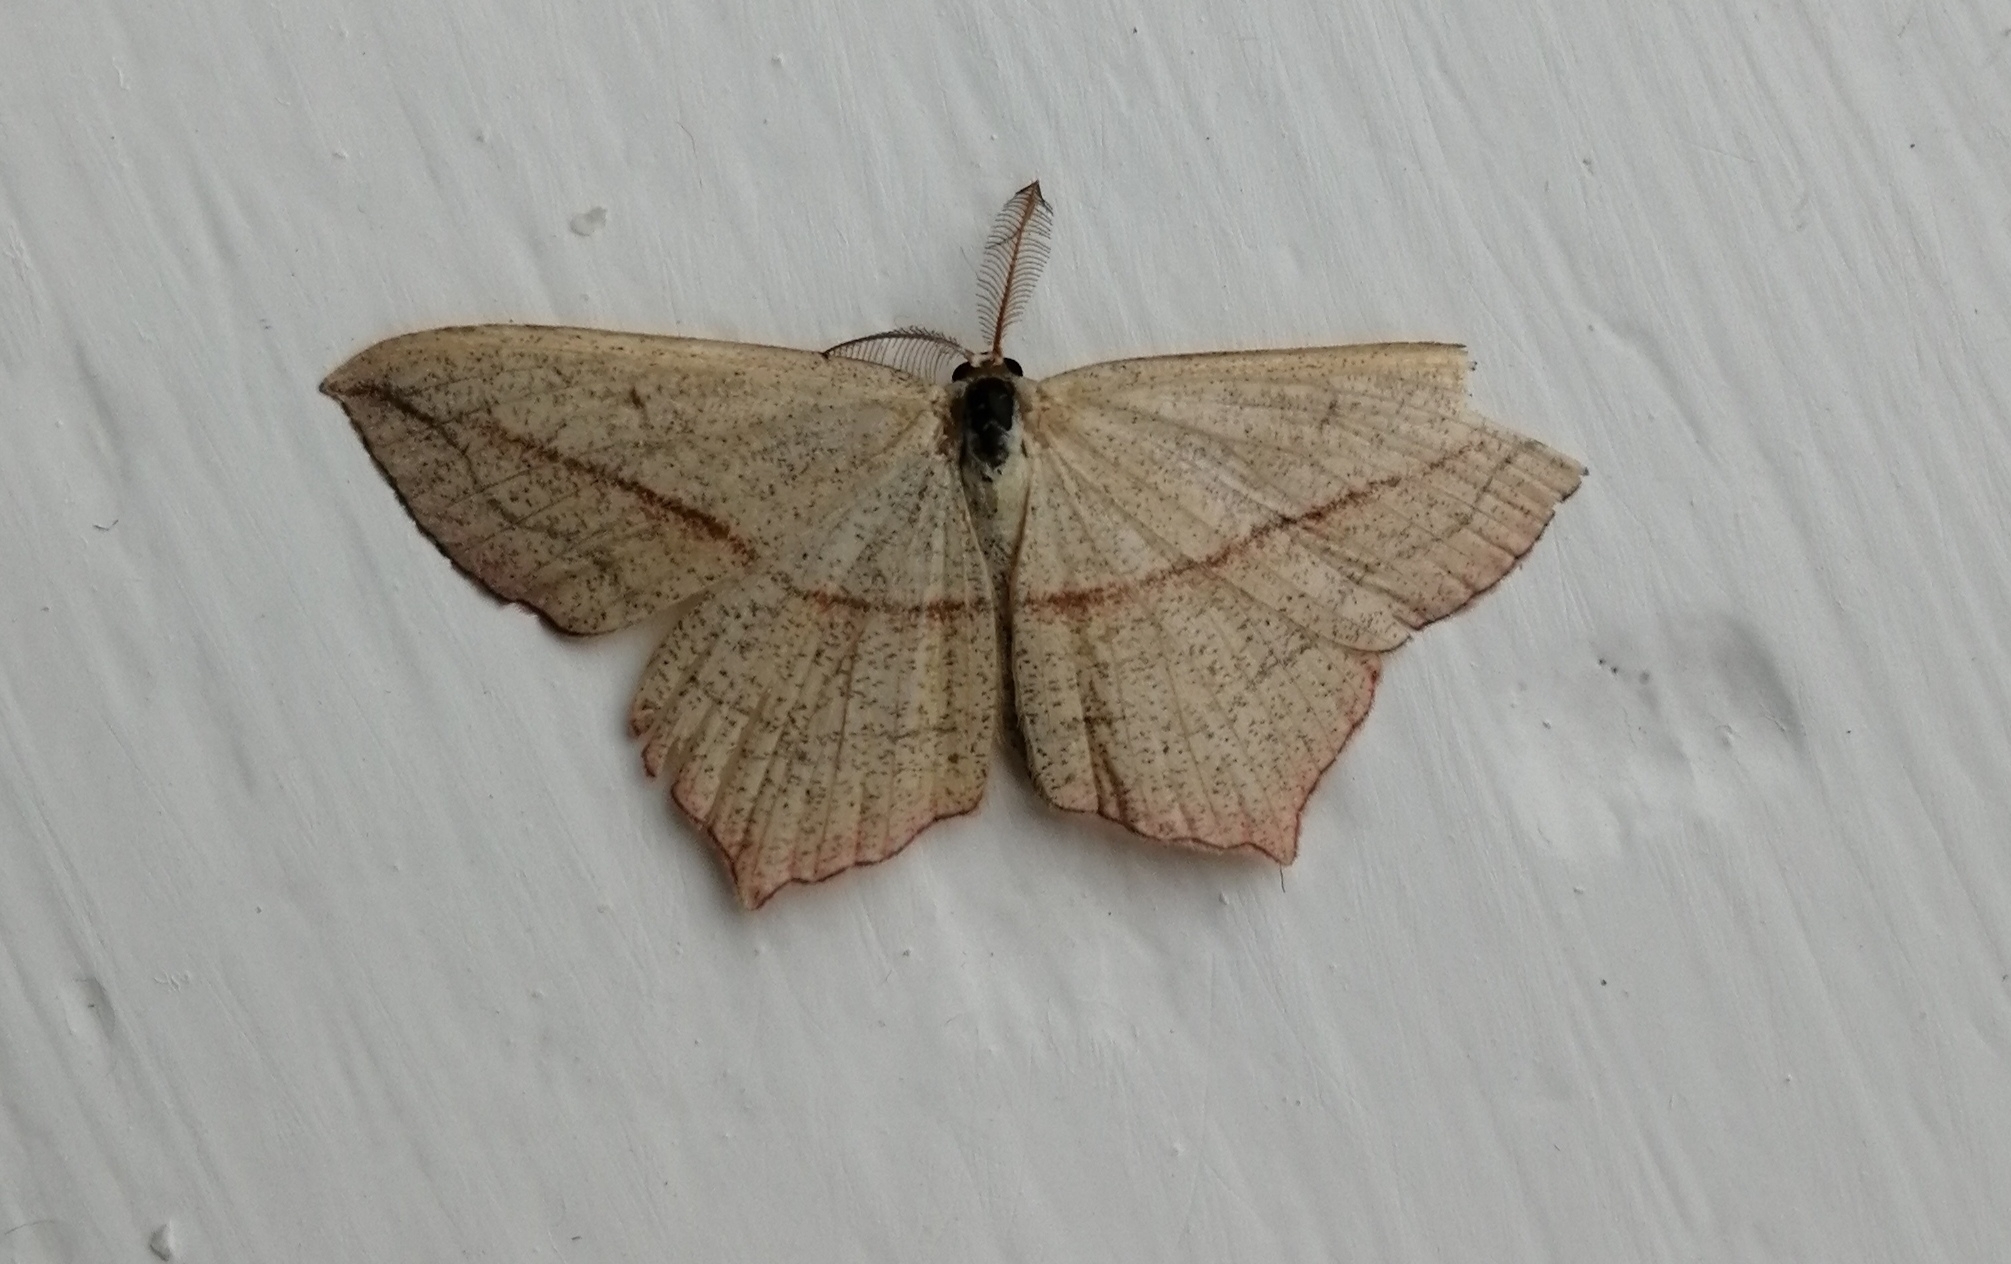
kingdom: Animalia
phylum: Arthropoda
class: Insecta
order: Lepidoptera
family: Geometridae
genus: Timandra
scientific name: Timandra comae
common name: Blood-vein
